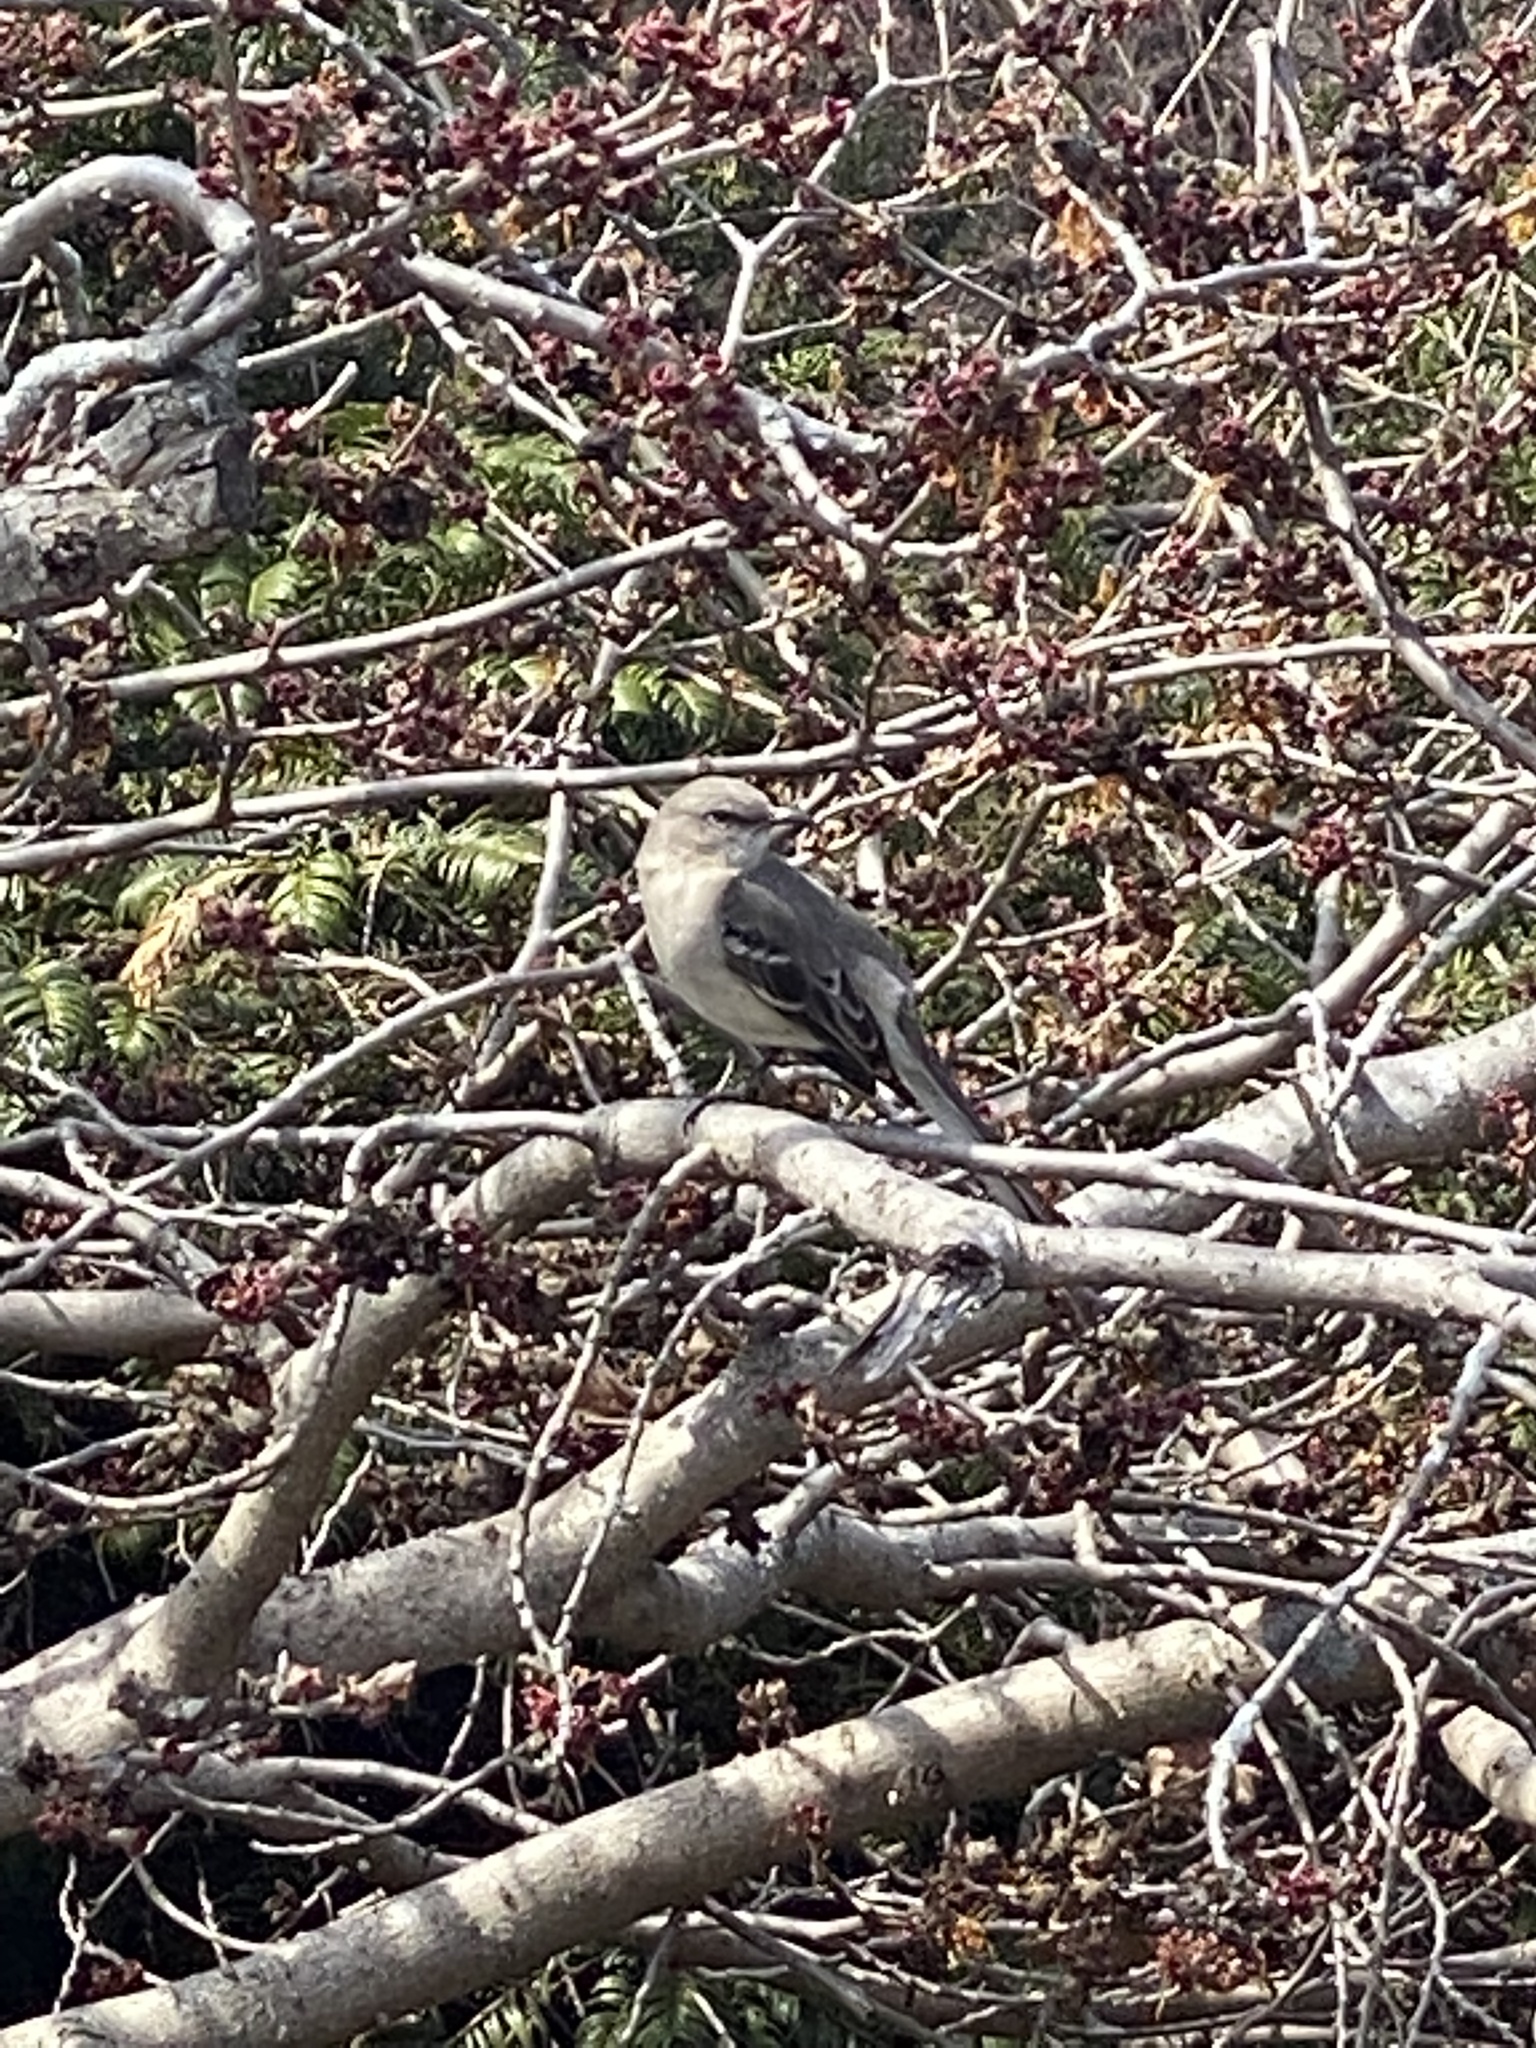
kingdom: Animalia
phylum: Chordata
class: Aves
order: Passeriformes
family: Mimidae
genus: Mimus
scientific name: Mimus polyglottos
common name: Northern mockingbird
